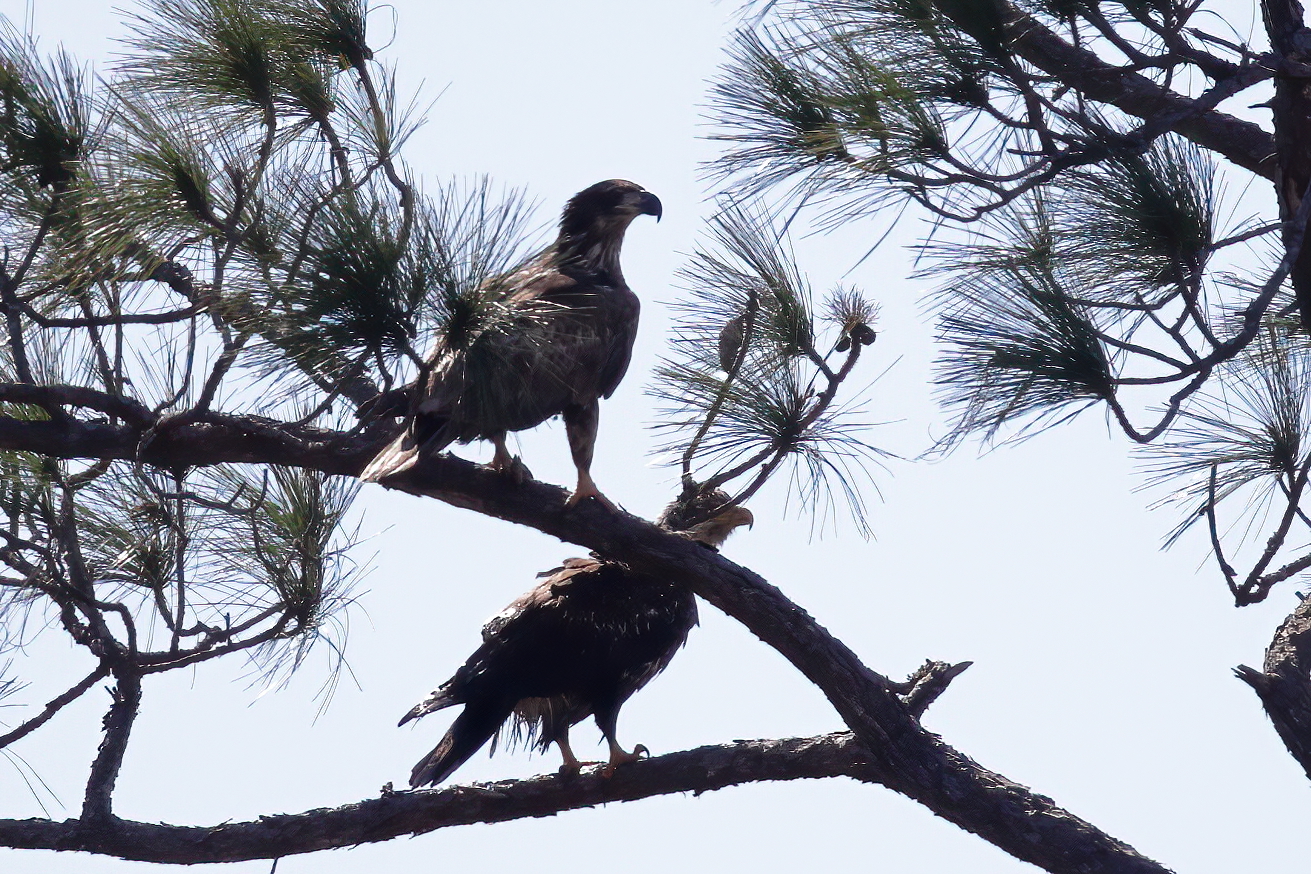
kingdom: Animalia
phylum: Chordata
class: Aves
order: Accipitriformes
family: Accipitridae
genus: Haliaeetus
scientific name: Haliaeetus leucocephalus
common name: Bald eagle
